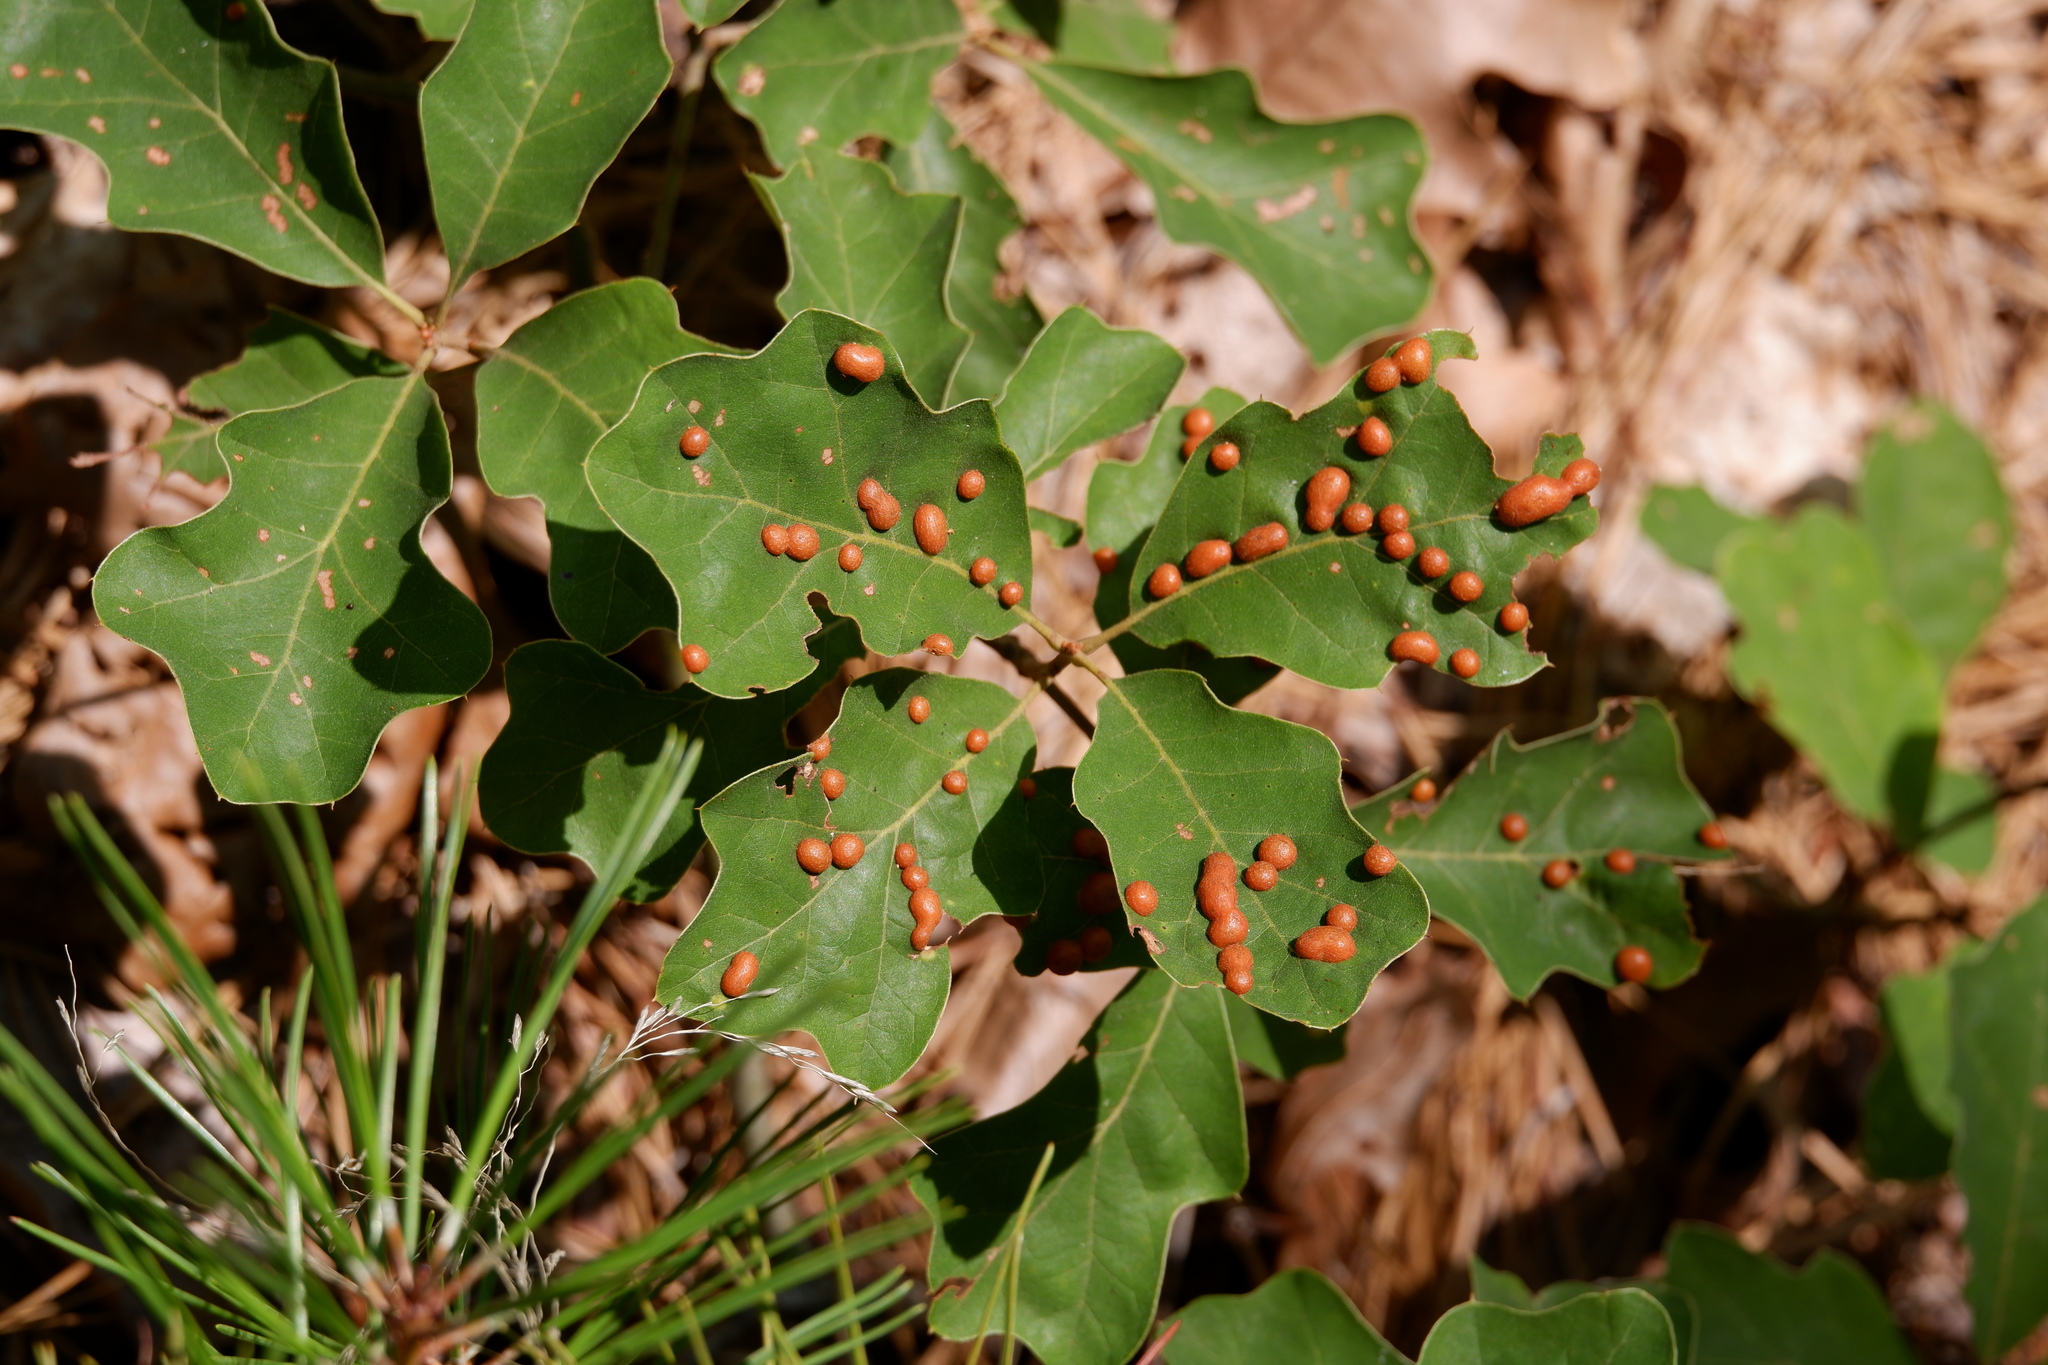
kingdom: Animalia
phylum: Arthropoda
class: Insecta
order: Diptera
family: Cecidomyiidae
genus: Polystepha
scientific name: Polystepha pilulae
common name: Oak leaf gall midge
